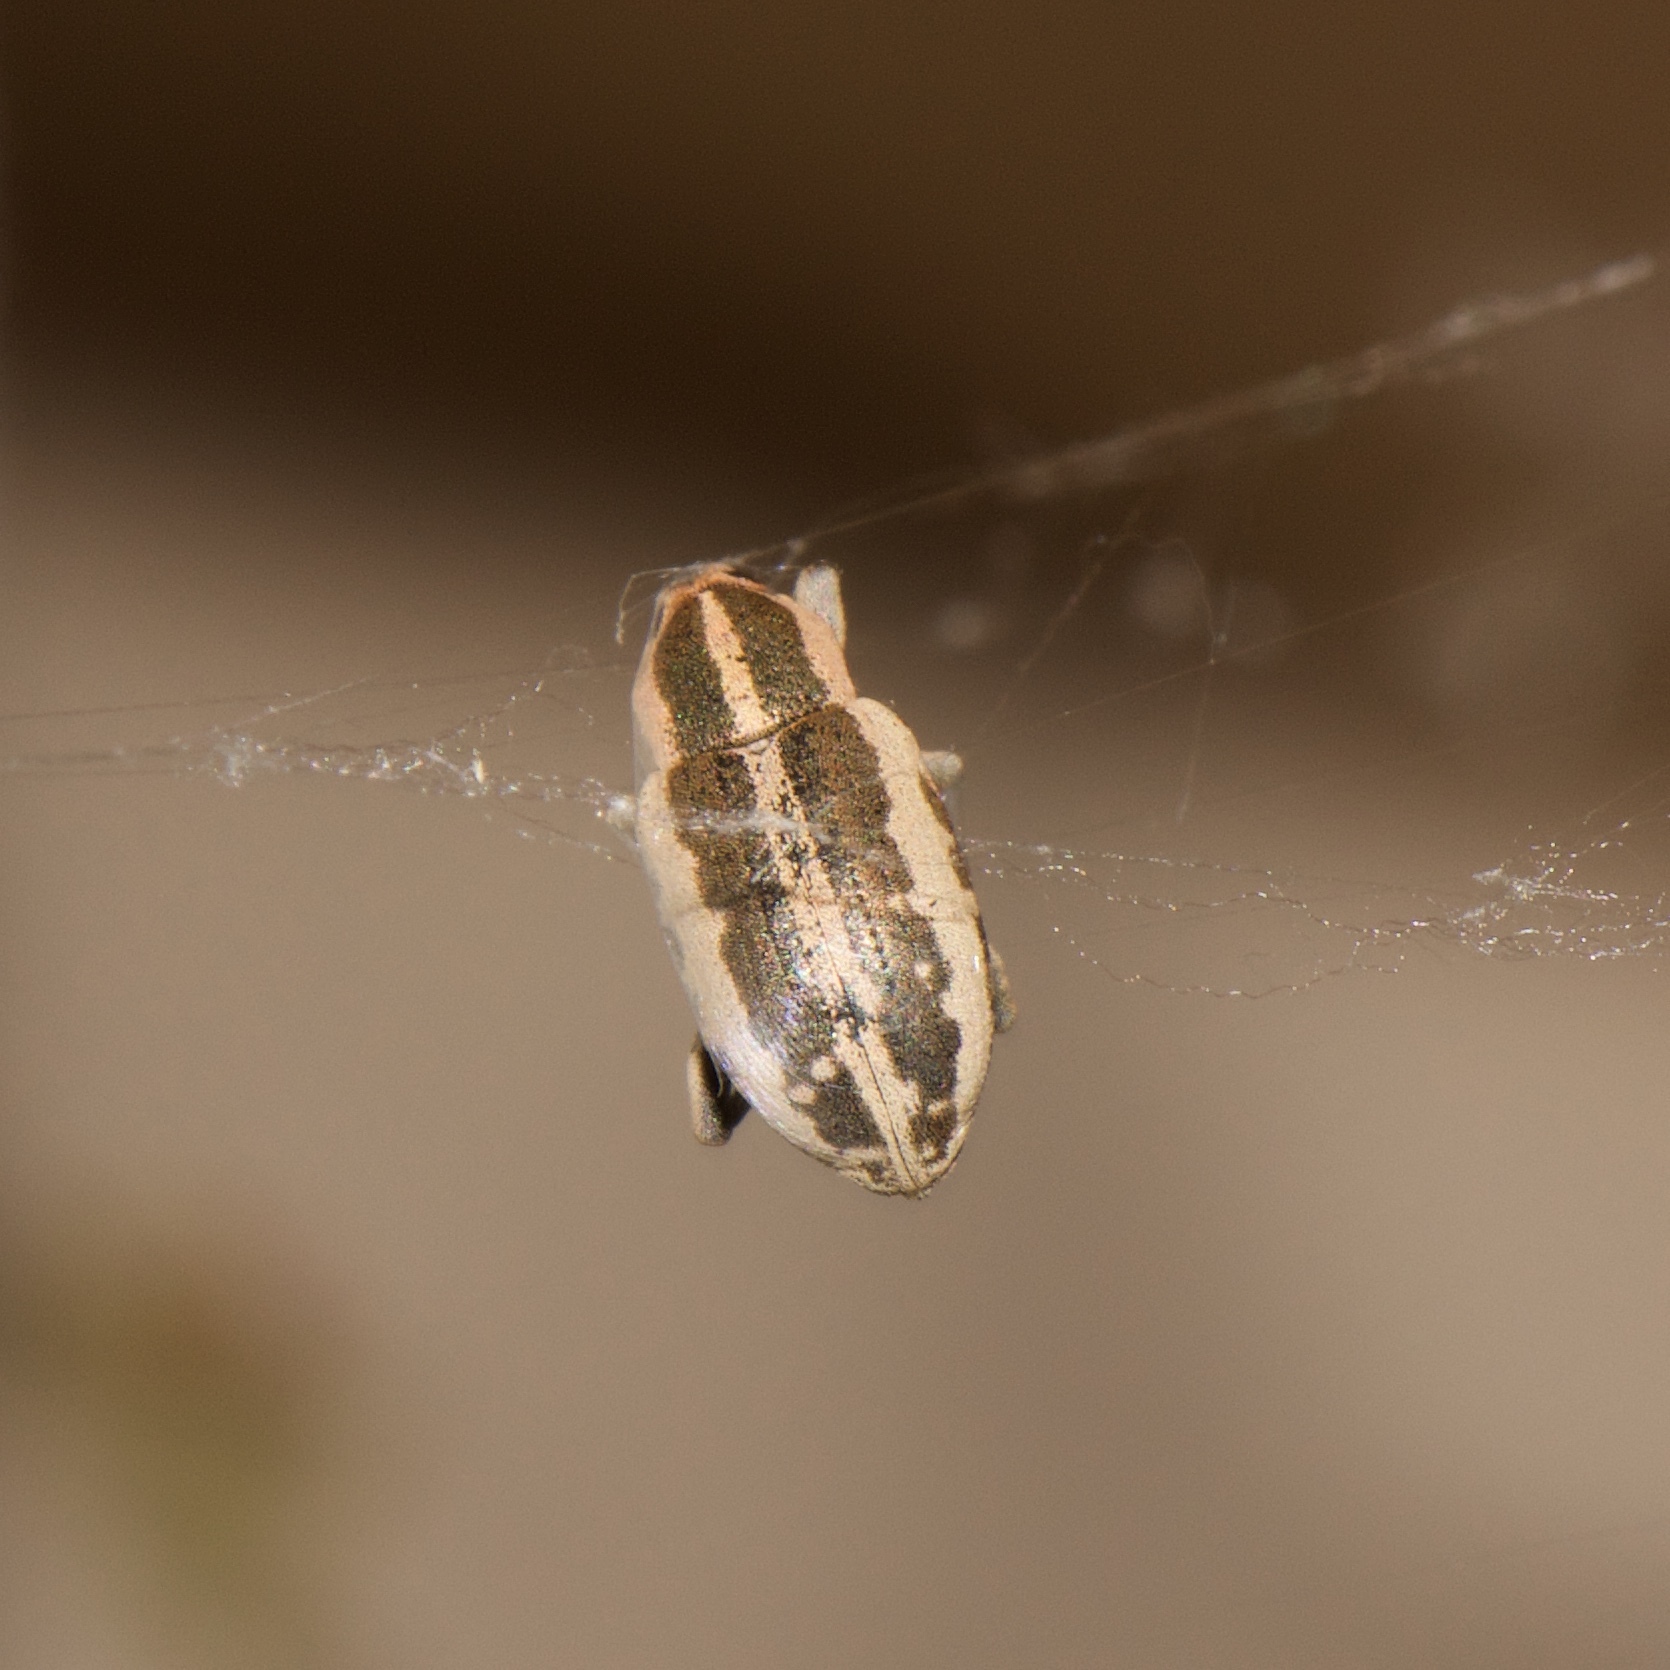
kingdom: Animalia
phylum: Arthropoda
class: Insecta
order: Coleoptera
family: Curculionidae
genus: Eudiagogus
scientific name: Eudiagogus rosenschoeldi
